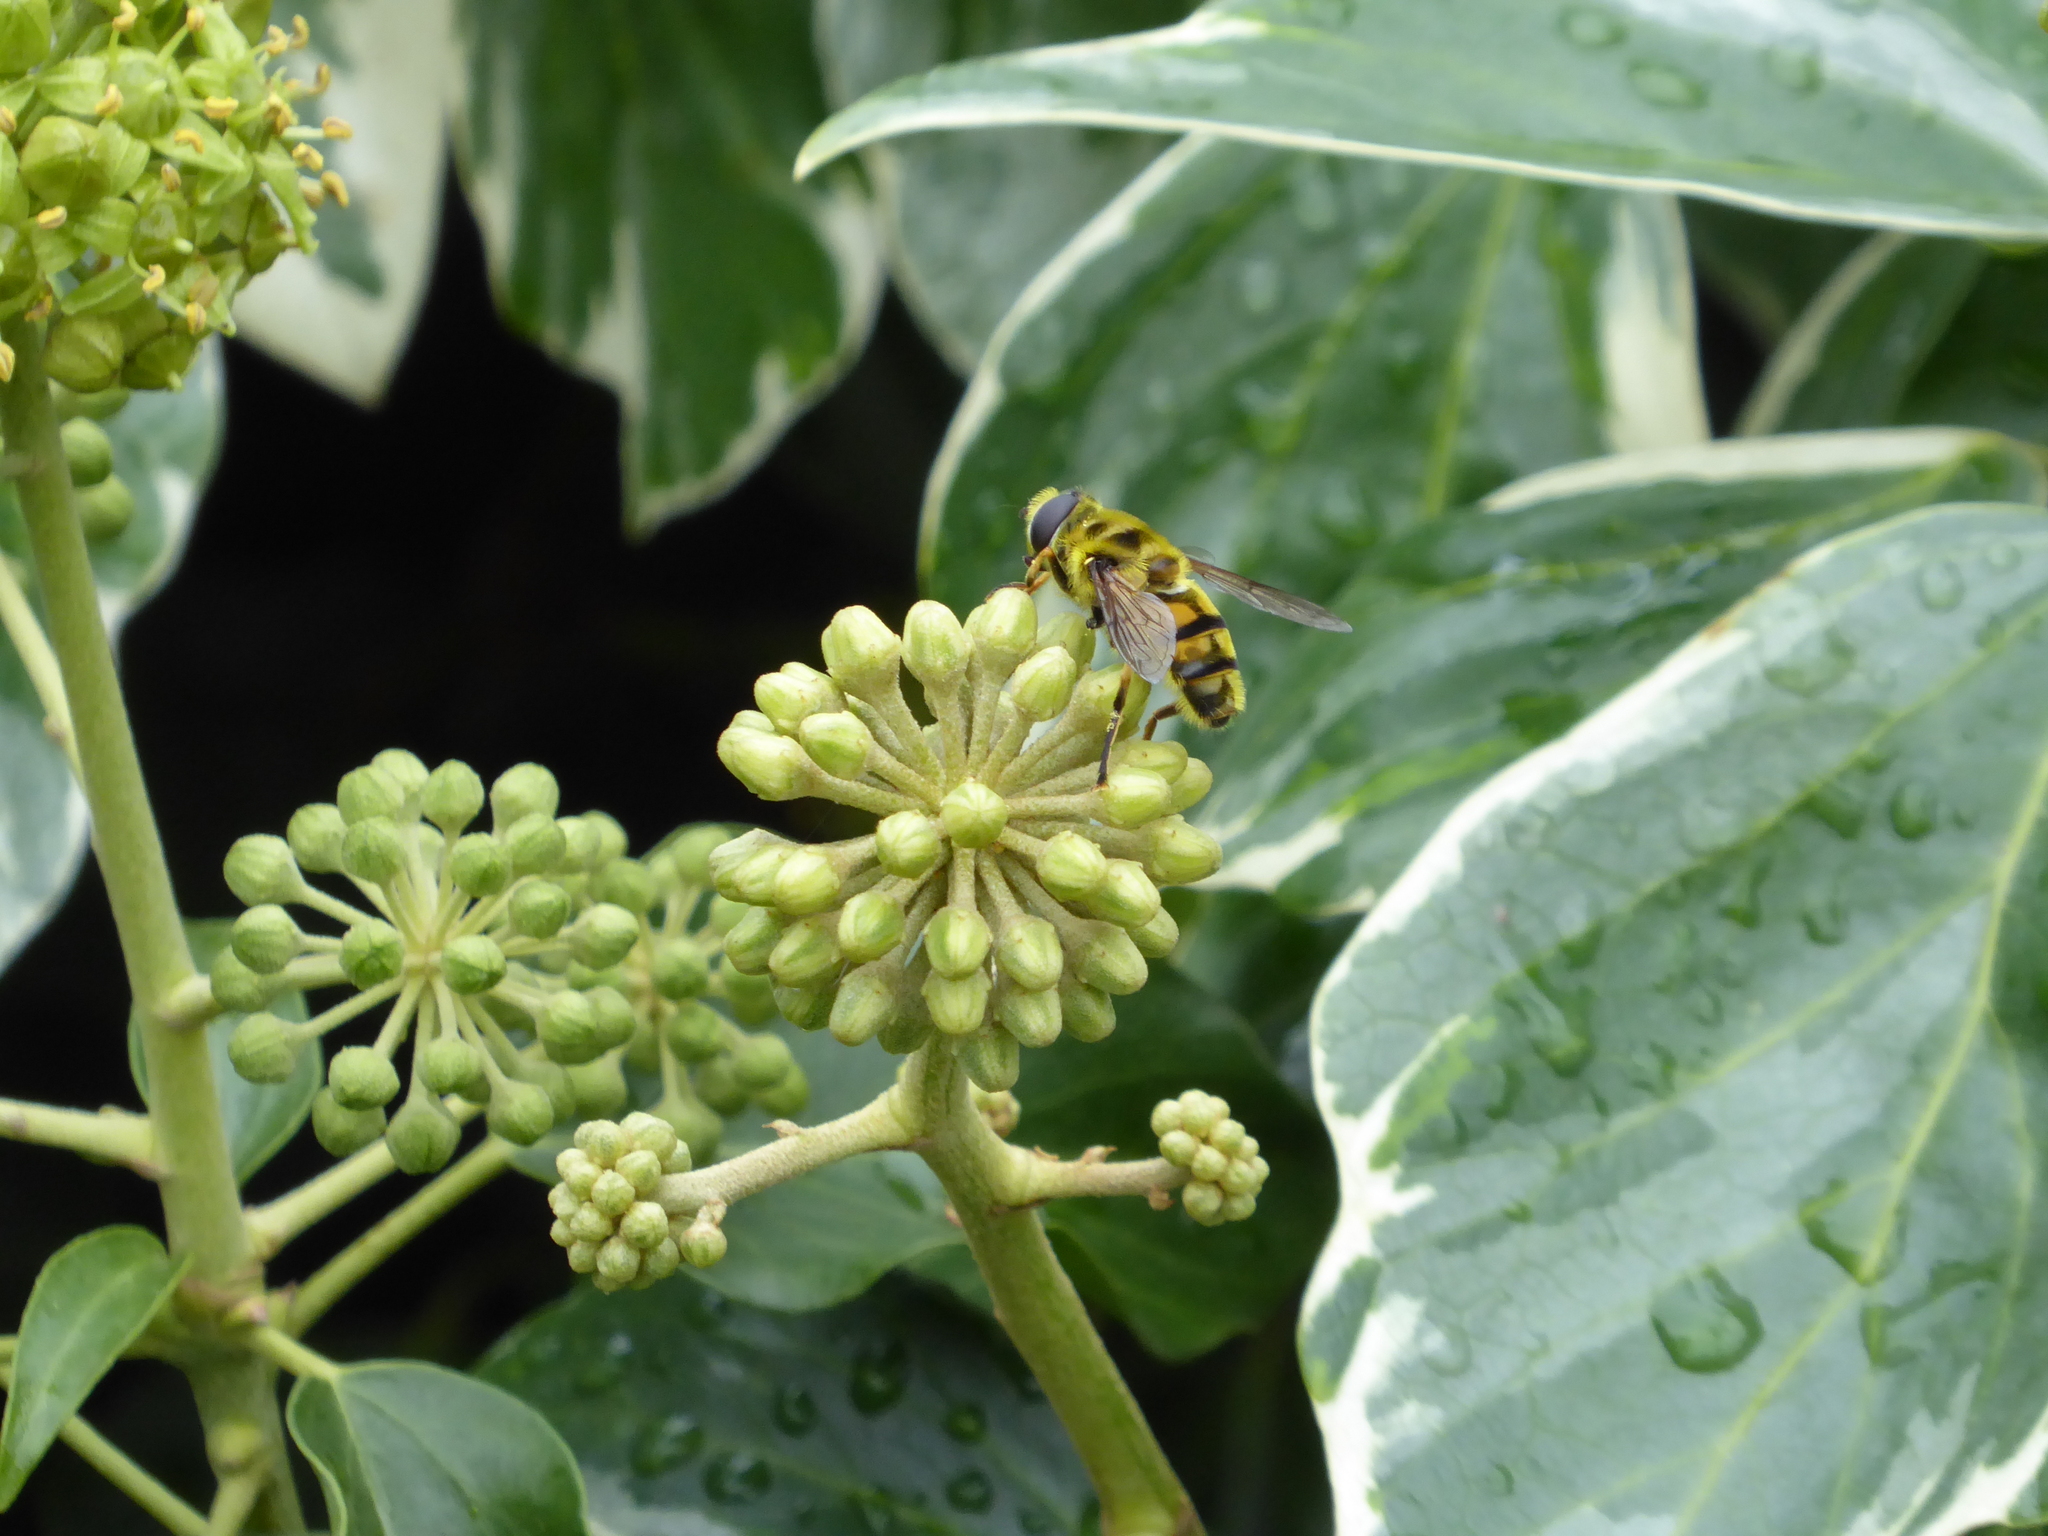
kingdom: Animalia
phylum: Arthropoda
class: Insecta
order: Diptera
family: Syrphidae
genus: Myathropa
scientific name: Myathropa florea
